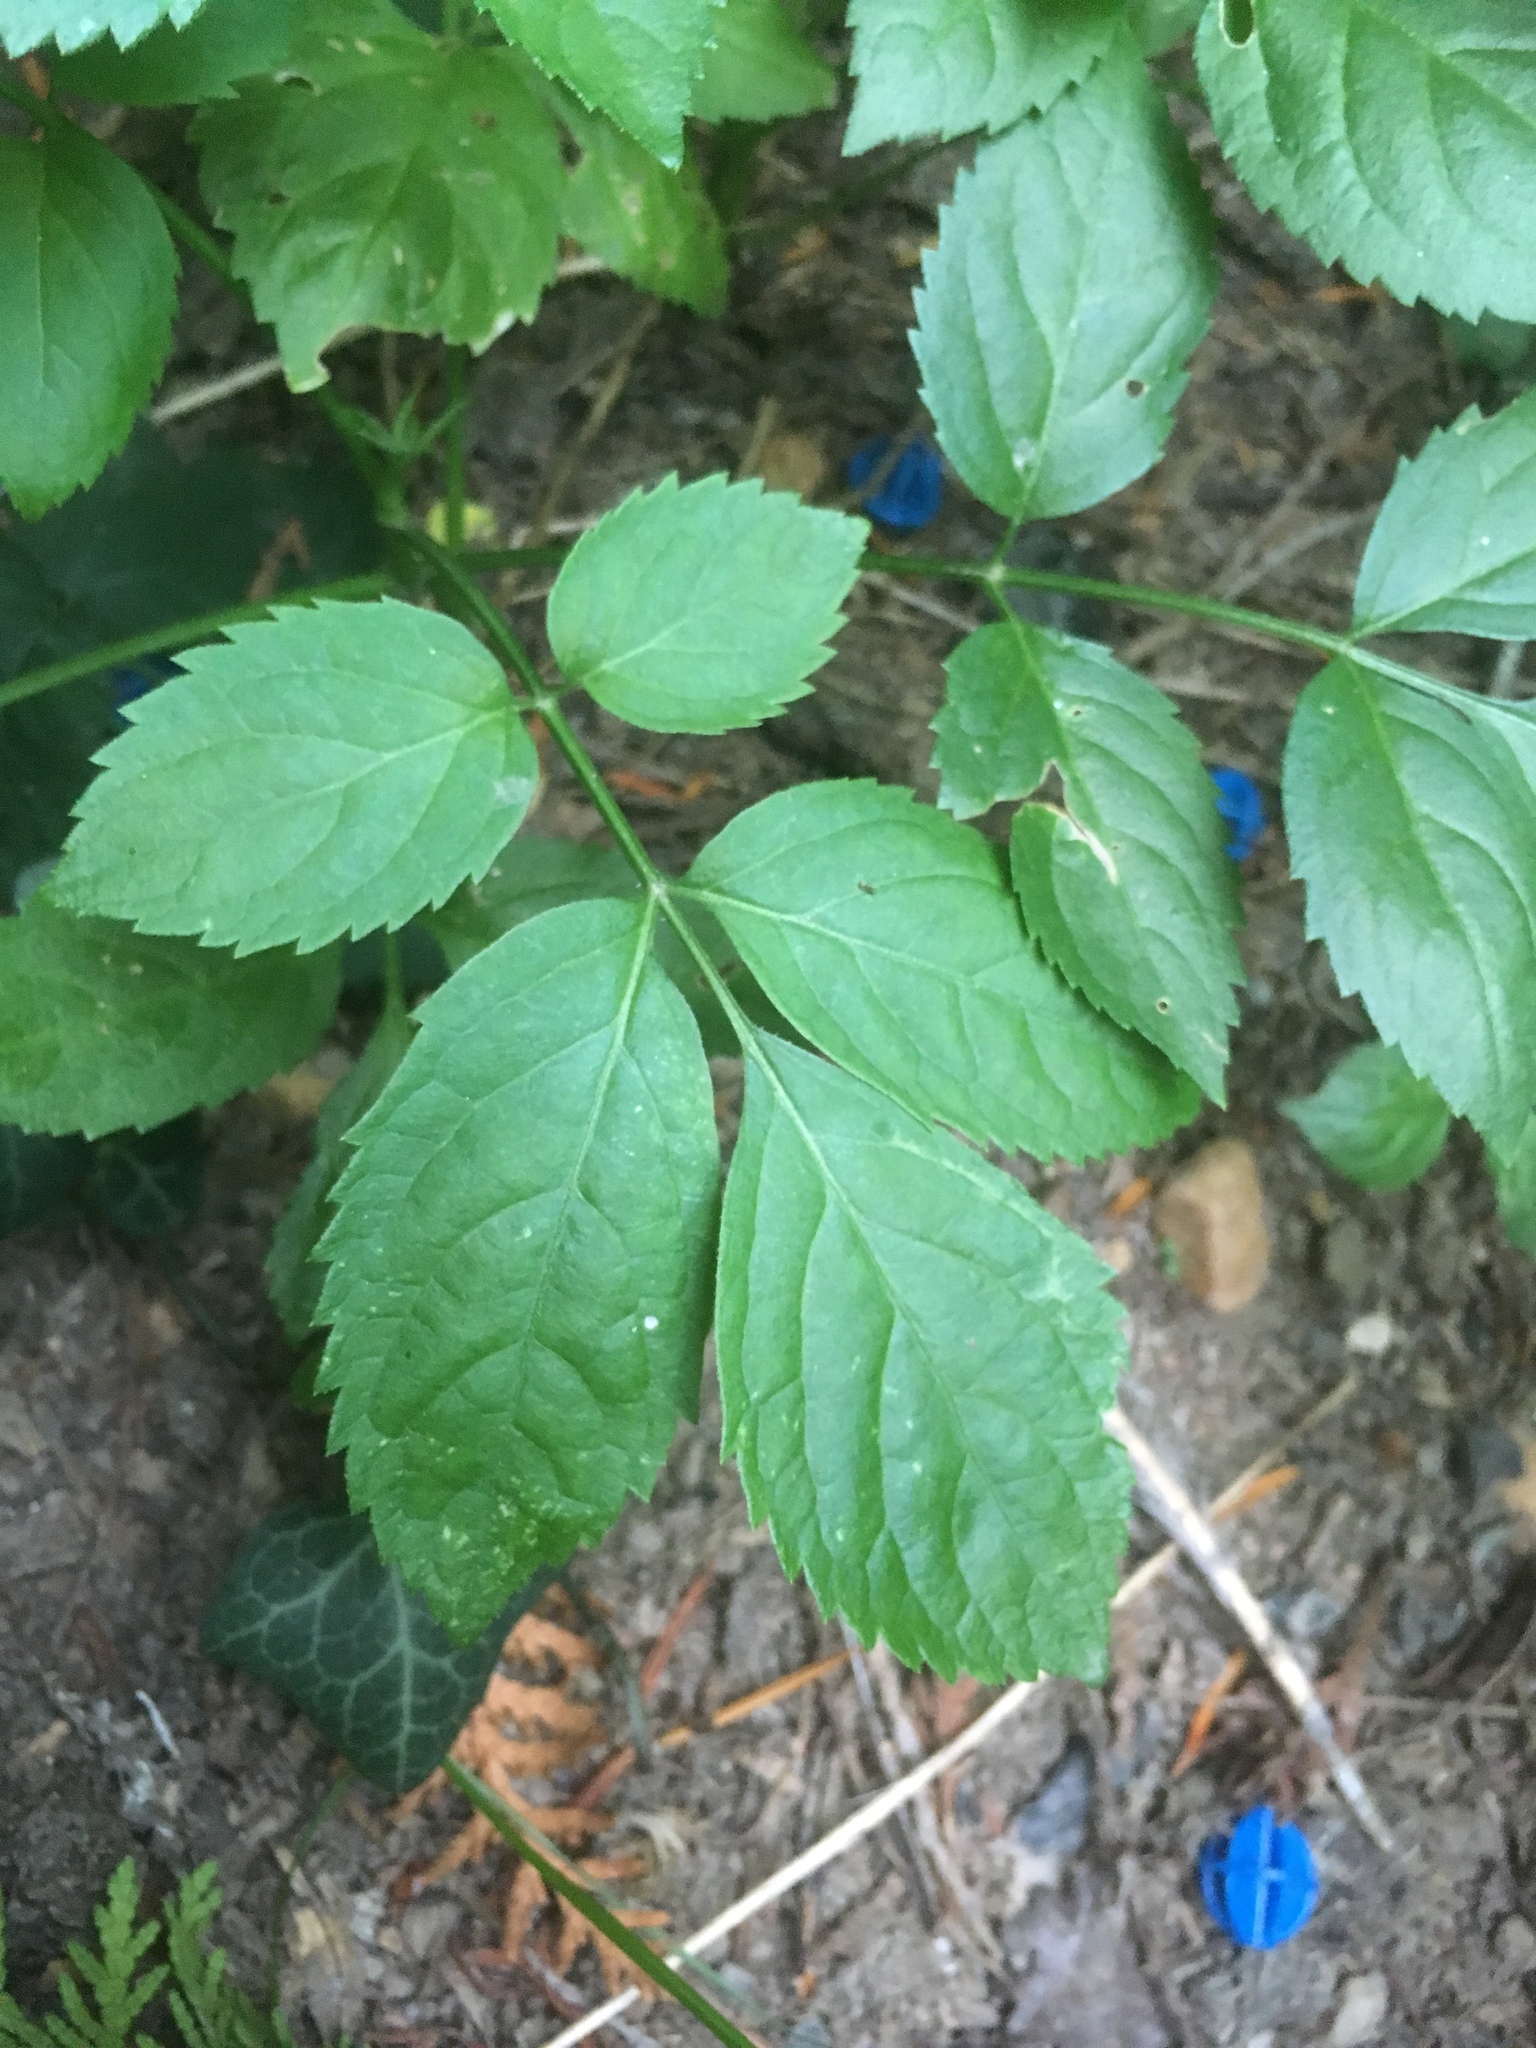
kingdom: Plantae
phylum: Tracheophyta
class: Magnoliopsida
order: Dipsacales
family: Viburnaceae
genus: Sambucus
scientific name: Sambucus nigra
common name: Elder
